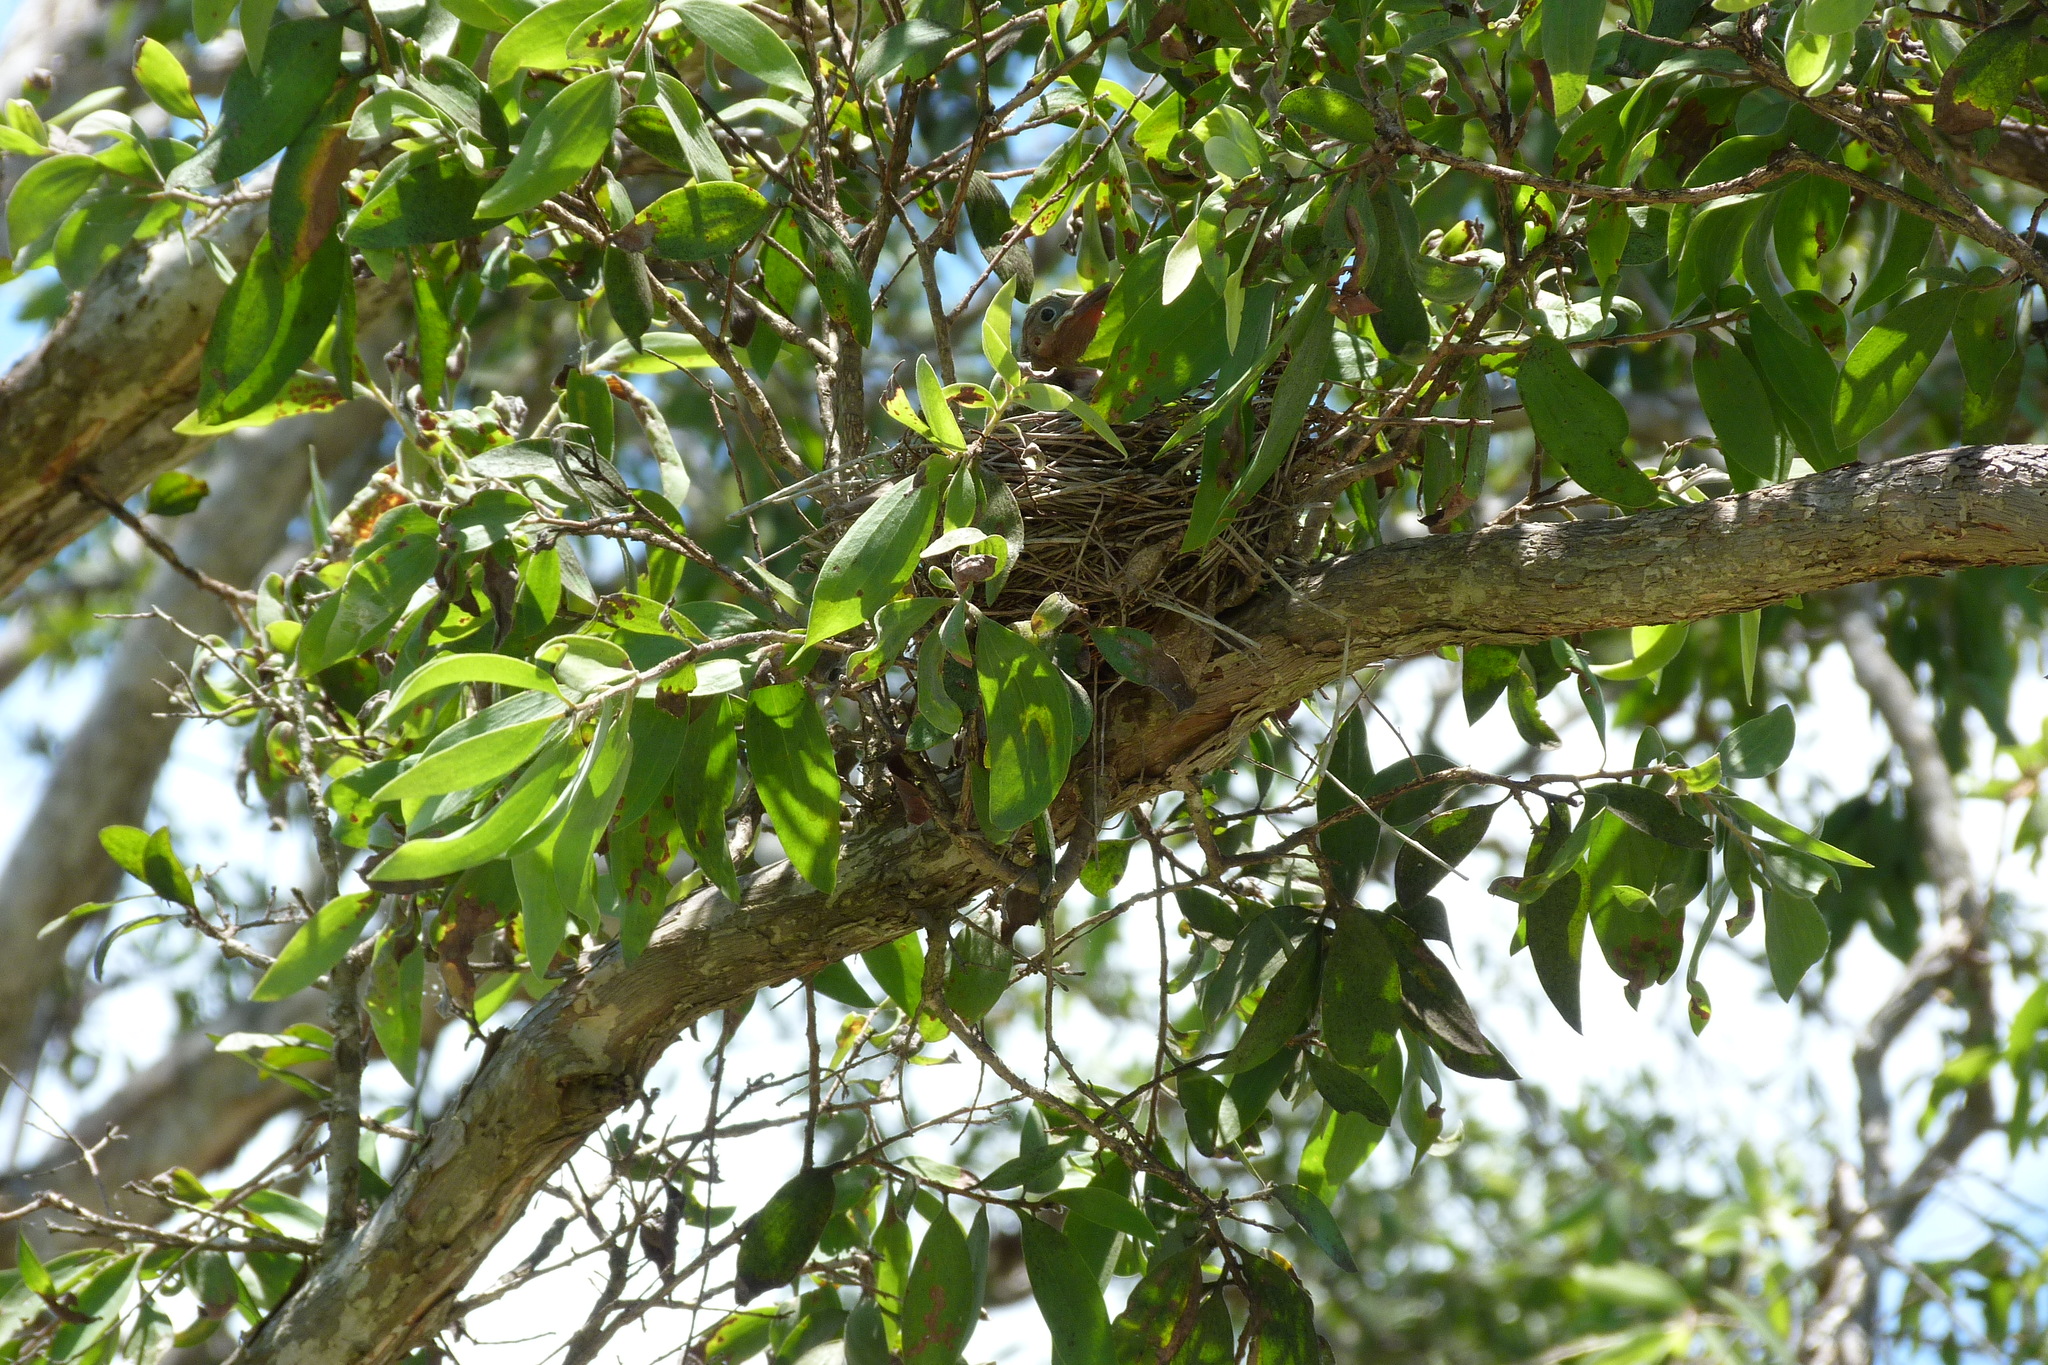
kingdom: Animalia
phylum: Chordata
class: Aves
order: Passeriformes
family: Oriolidae
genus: Sphecotheres
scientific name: Sphecotheres vieilloti
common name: Australasian figbird
